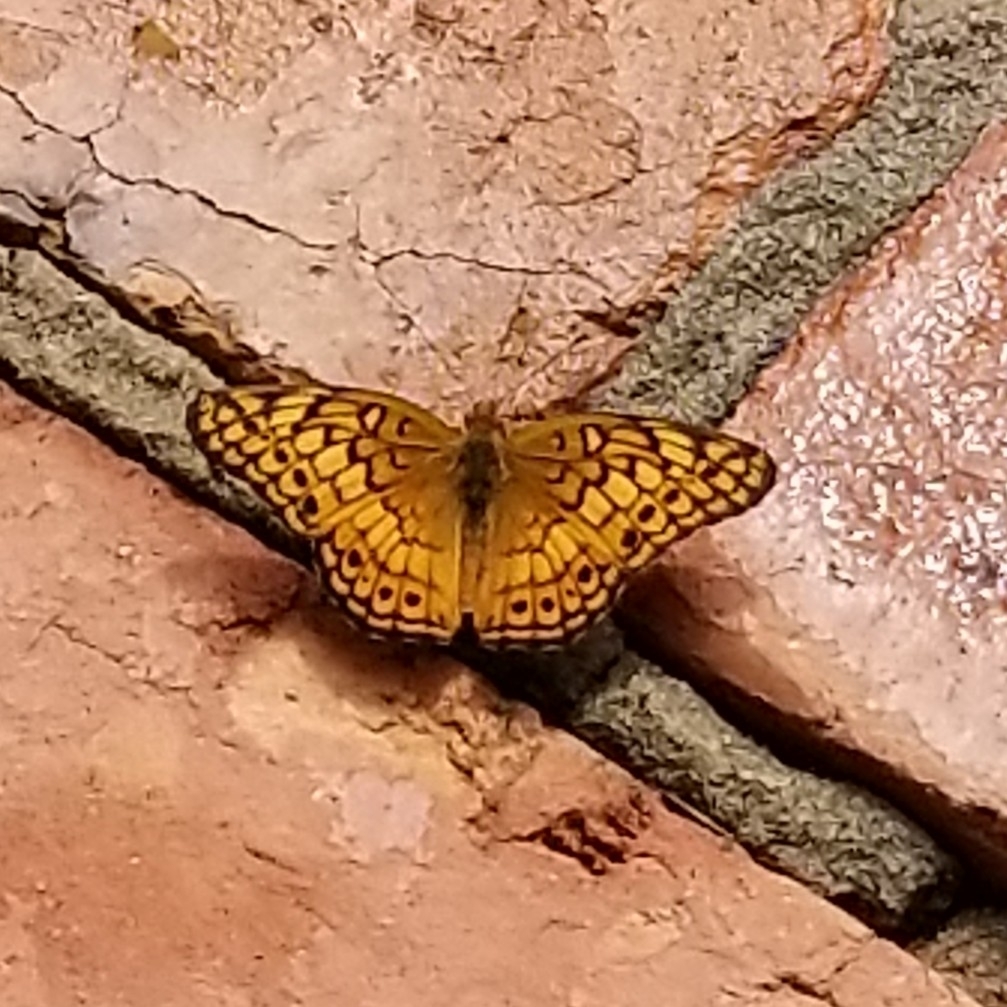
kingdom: Animalia
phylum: Arthropoda
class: Insecta
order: Lepidoptera
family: Nymphalidae
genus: Euptoieta
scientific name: Euptoieta claudia
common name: Variegated fritillary
